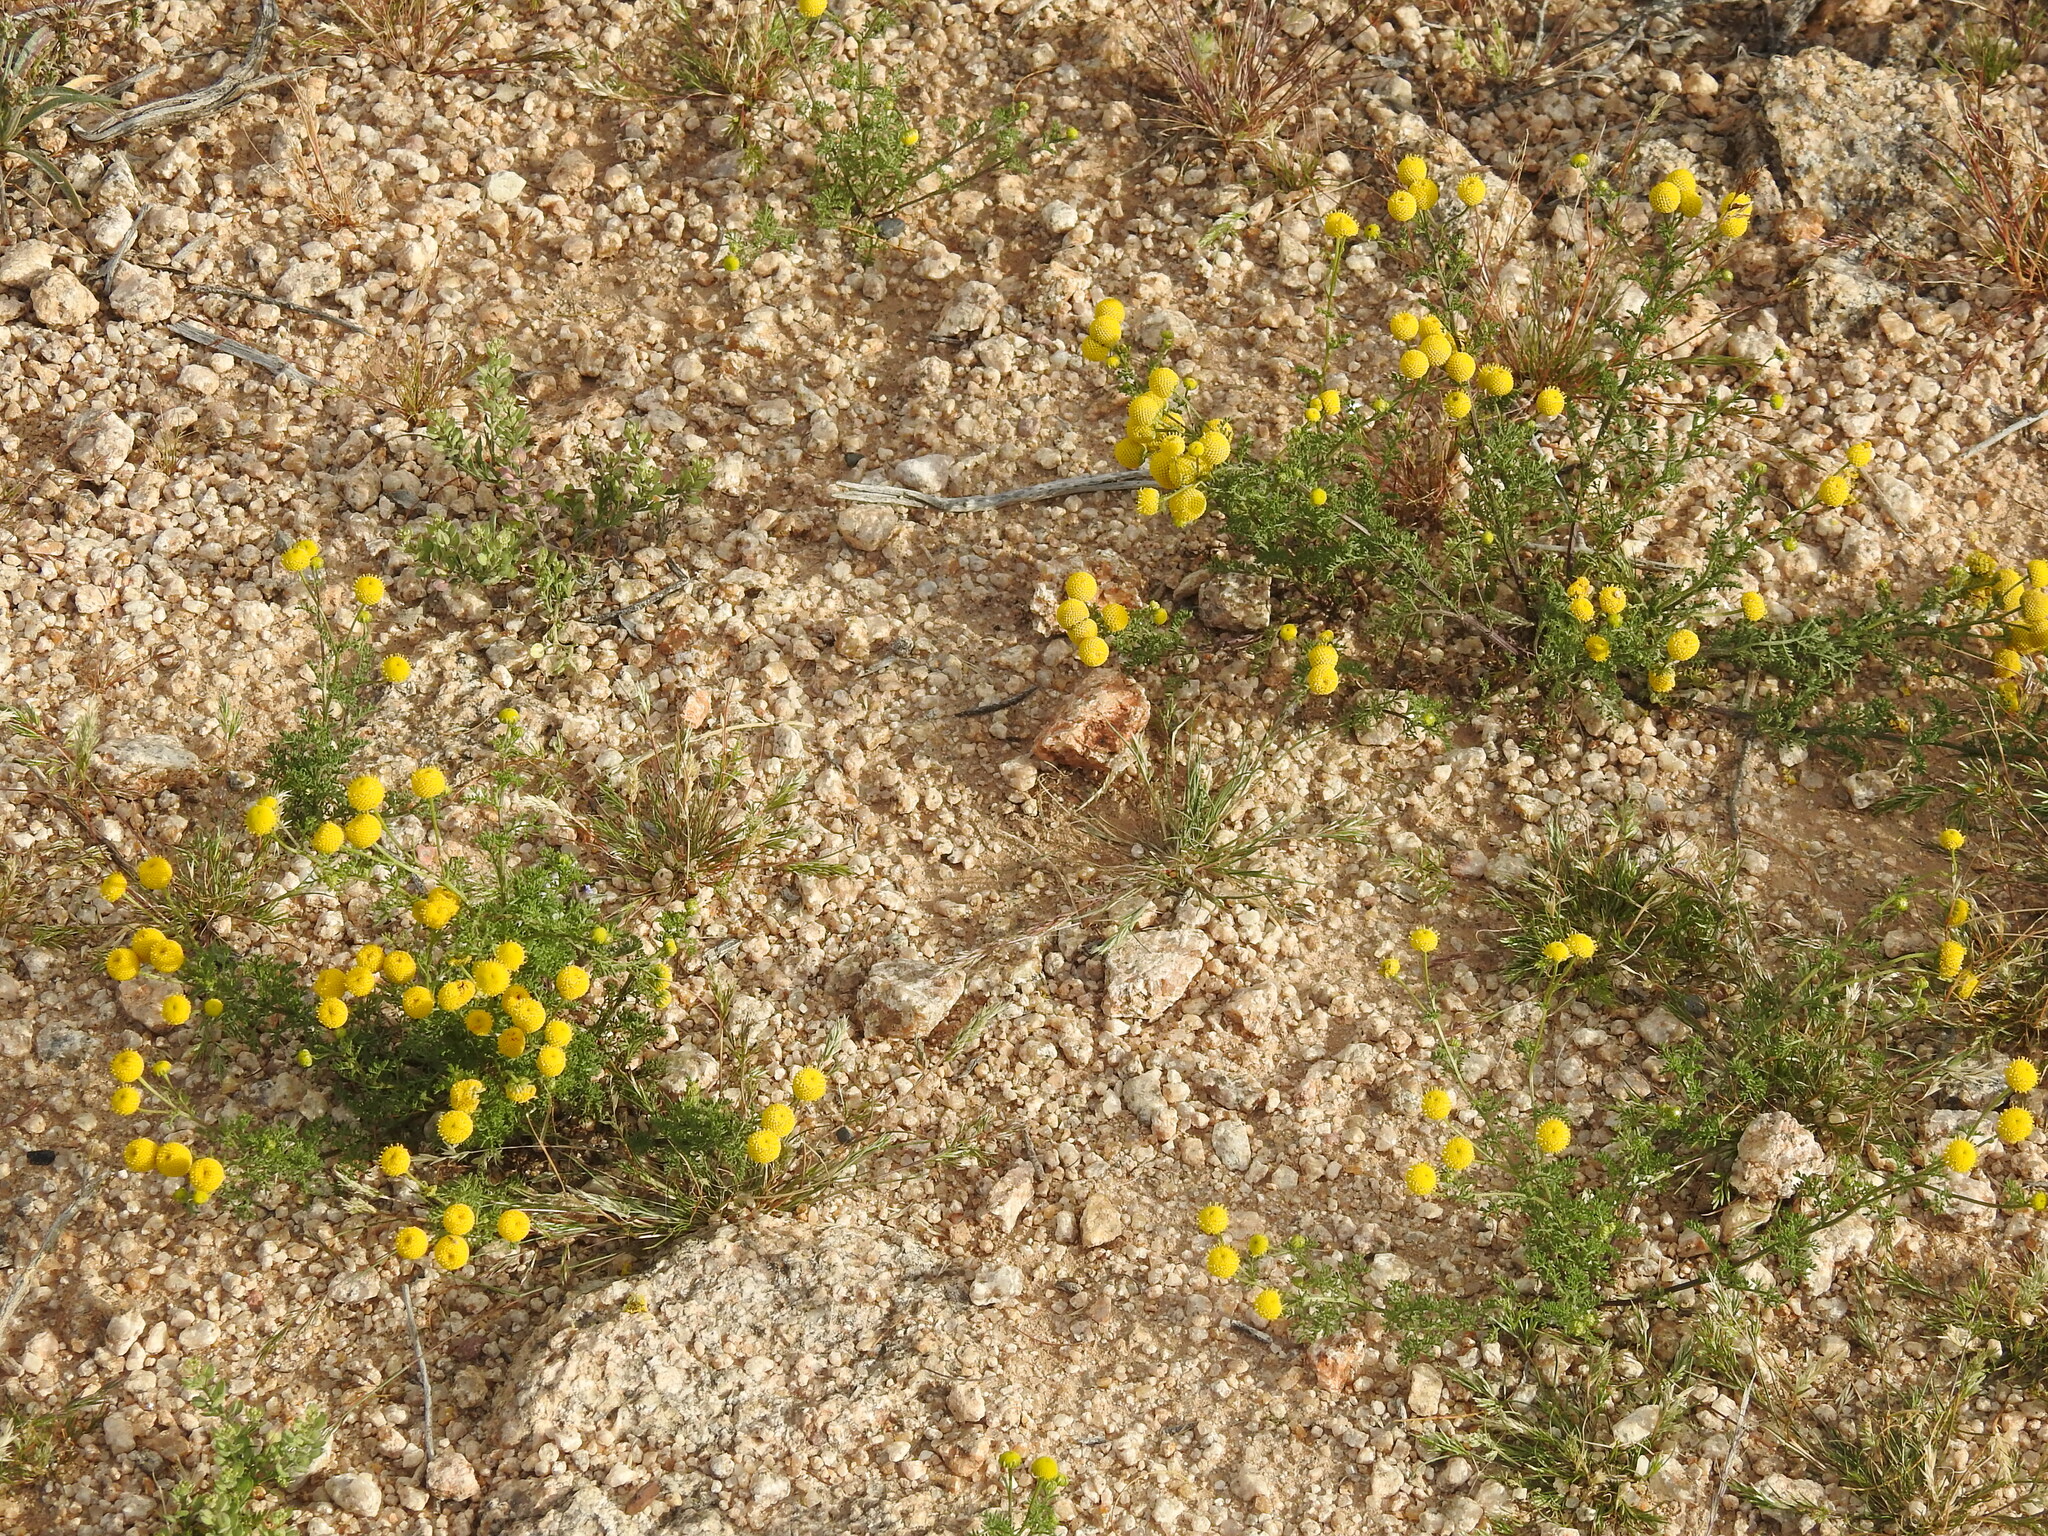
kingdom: Plantae
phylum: Tracheophyta
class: Magnoliopsida
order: Asterales
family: Asteraceae
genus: Oncosiphon
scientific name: Oncosiphon pilulifer
